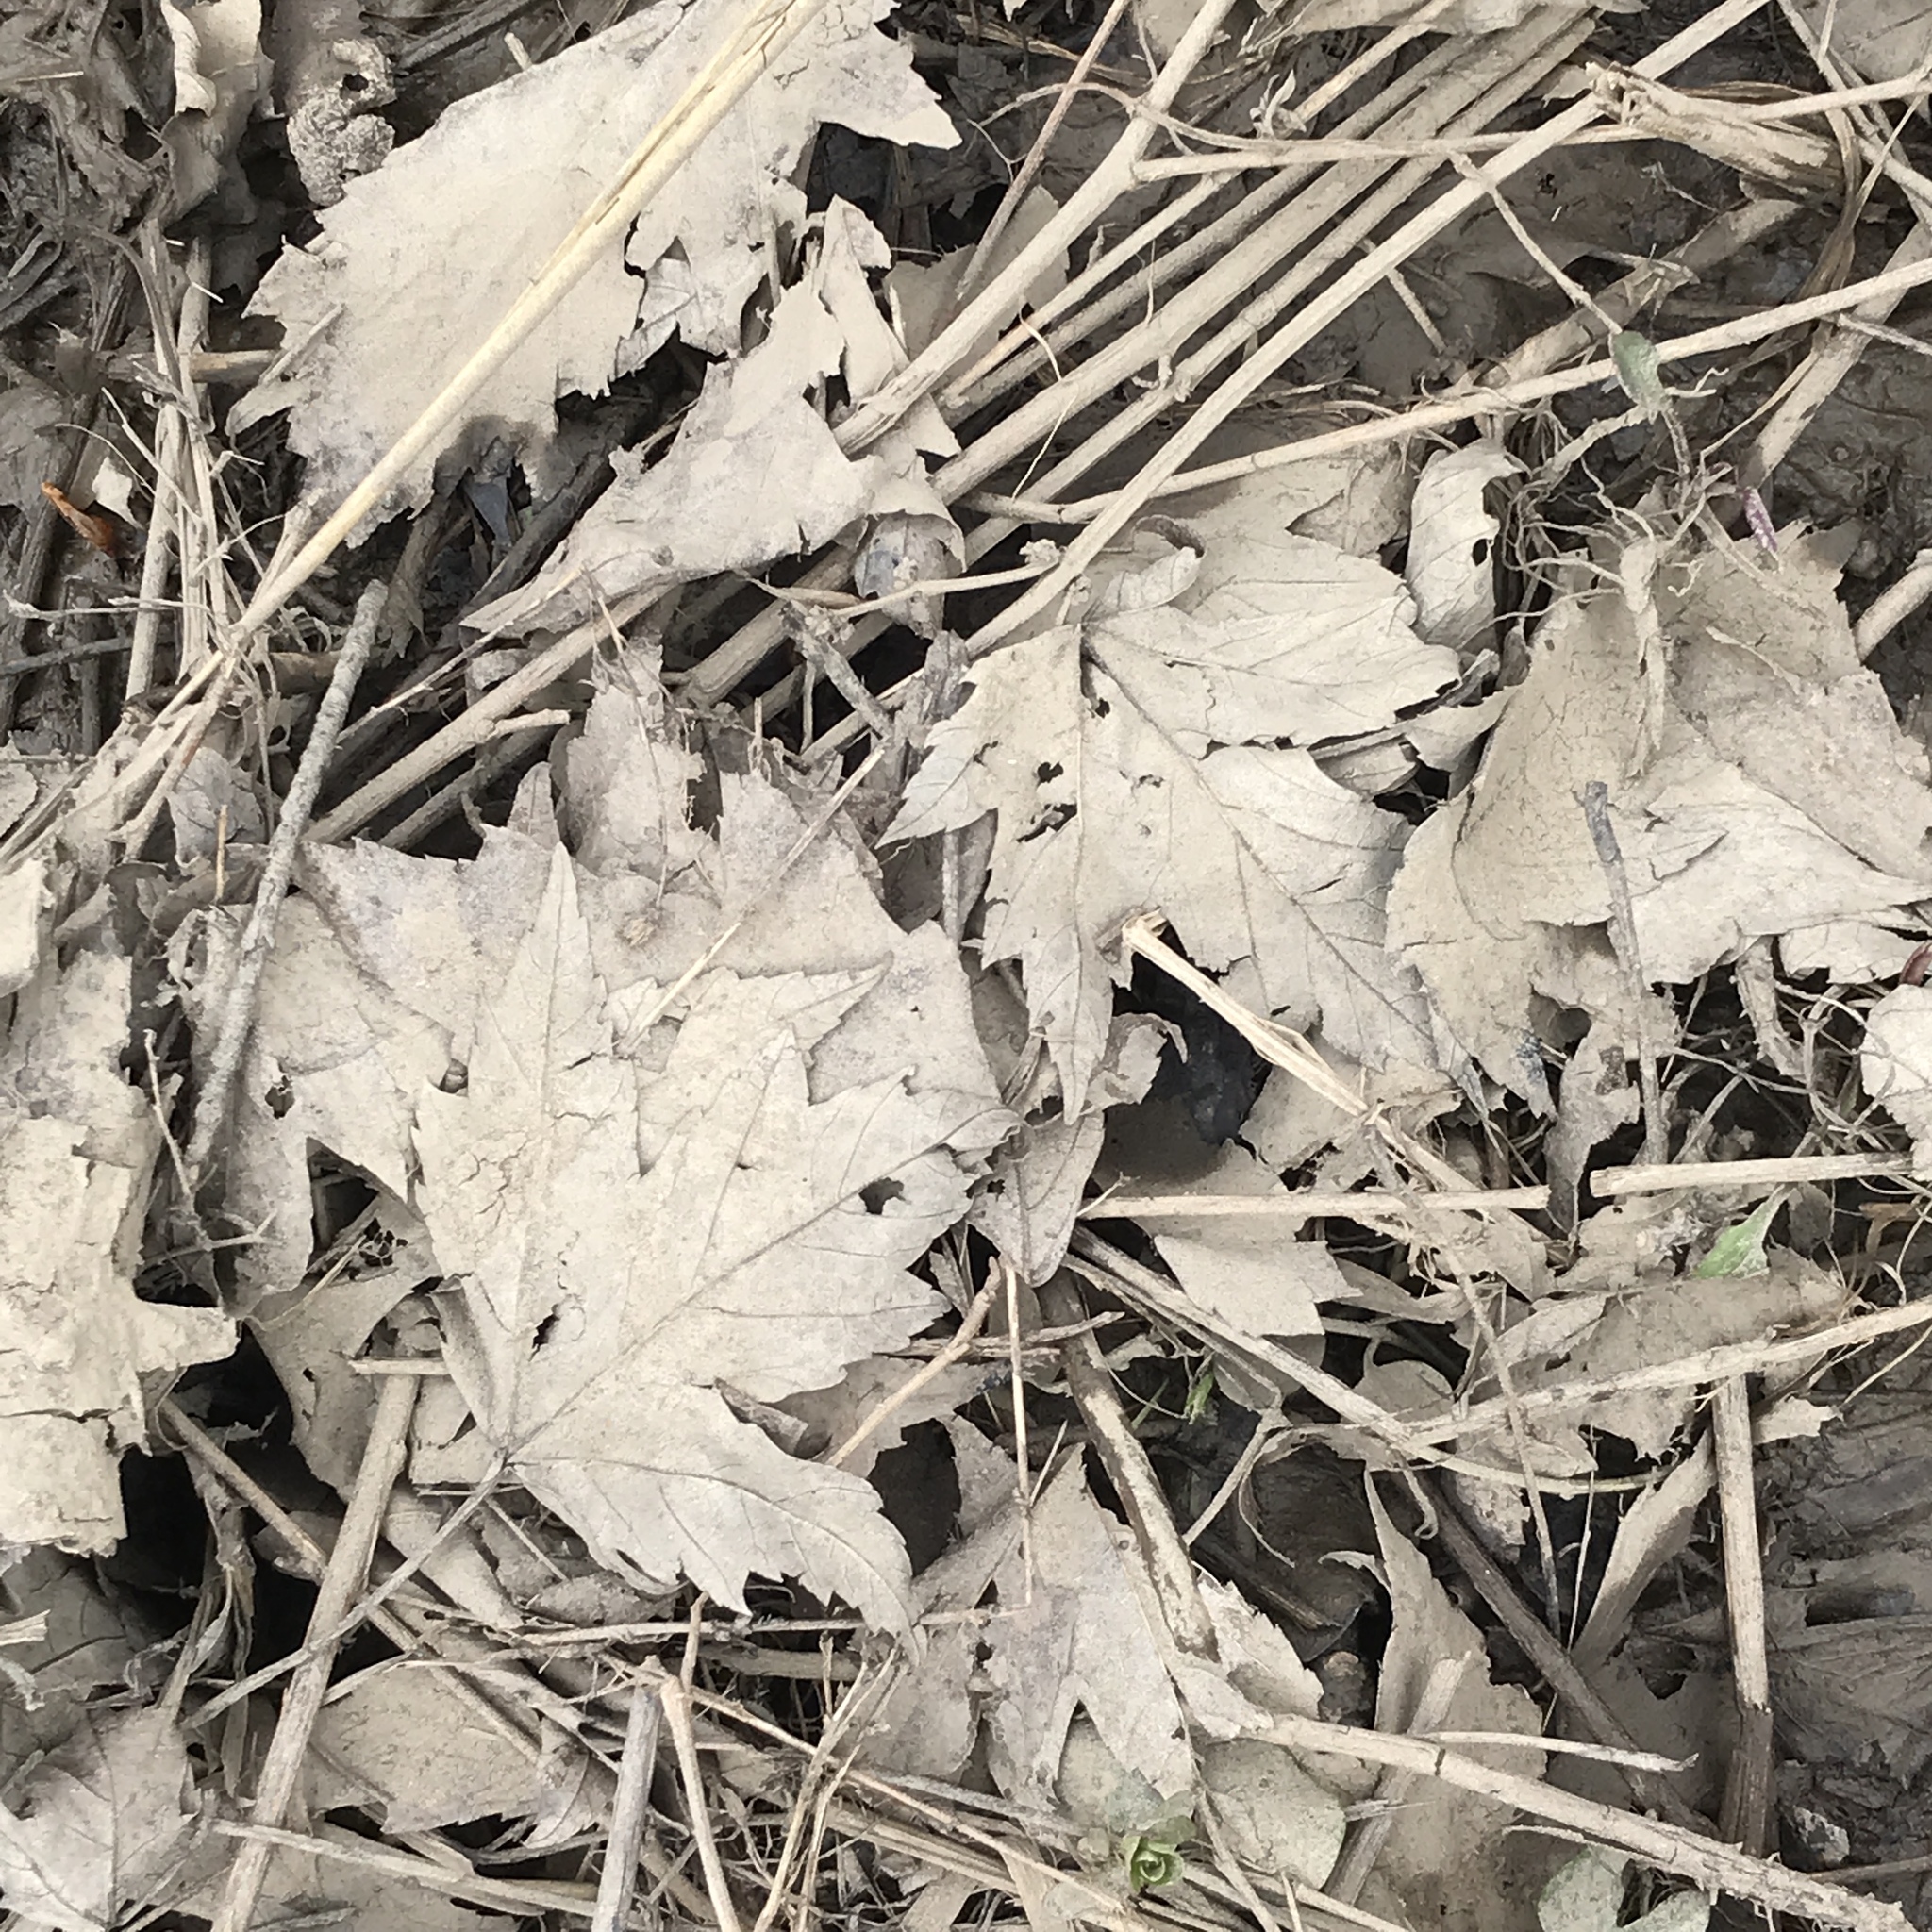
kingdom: Plantae
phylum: Tracheophyta
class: Magnoliopsida
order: Sapindales
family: Sapindaceae
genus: Acer
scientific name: Acer saccharinum
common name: Silver maple
